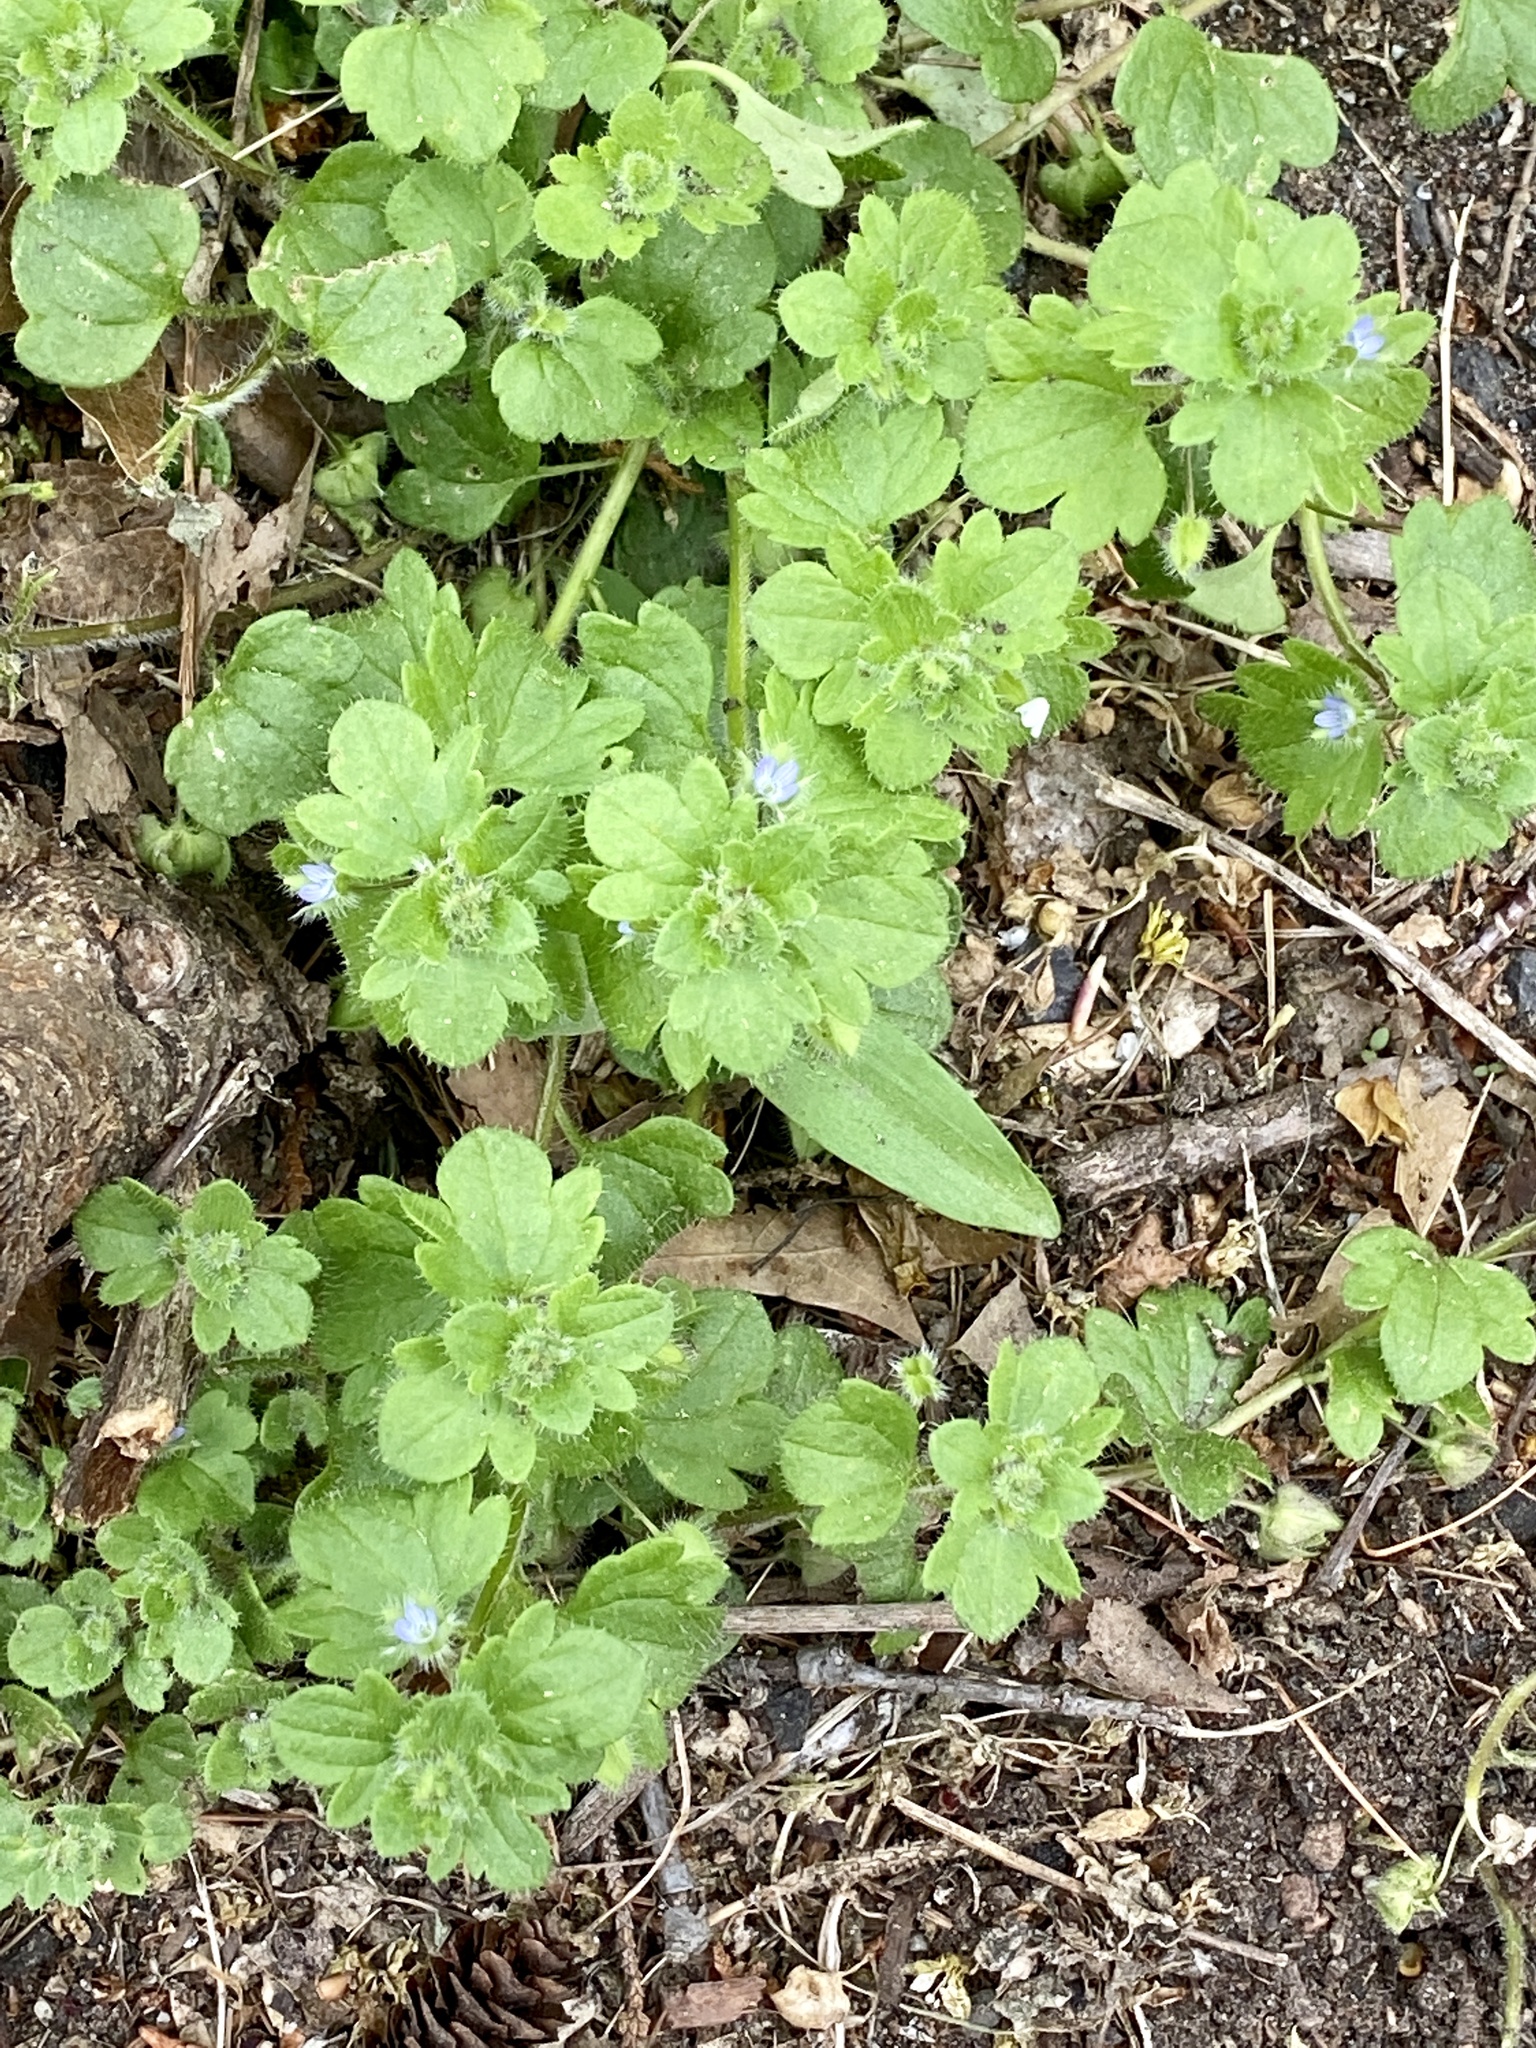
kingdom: Plantae
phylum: Tracheophyta
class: Magnoliopsida
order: Lamiales
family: Plantaginaceae
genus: Veronica
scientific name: Veronica hederifolia
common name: Ivy-leaved speedwell
